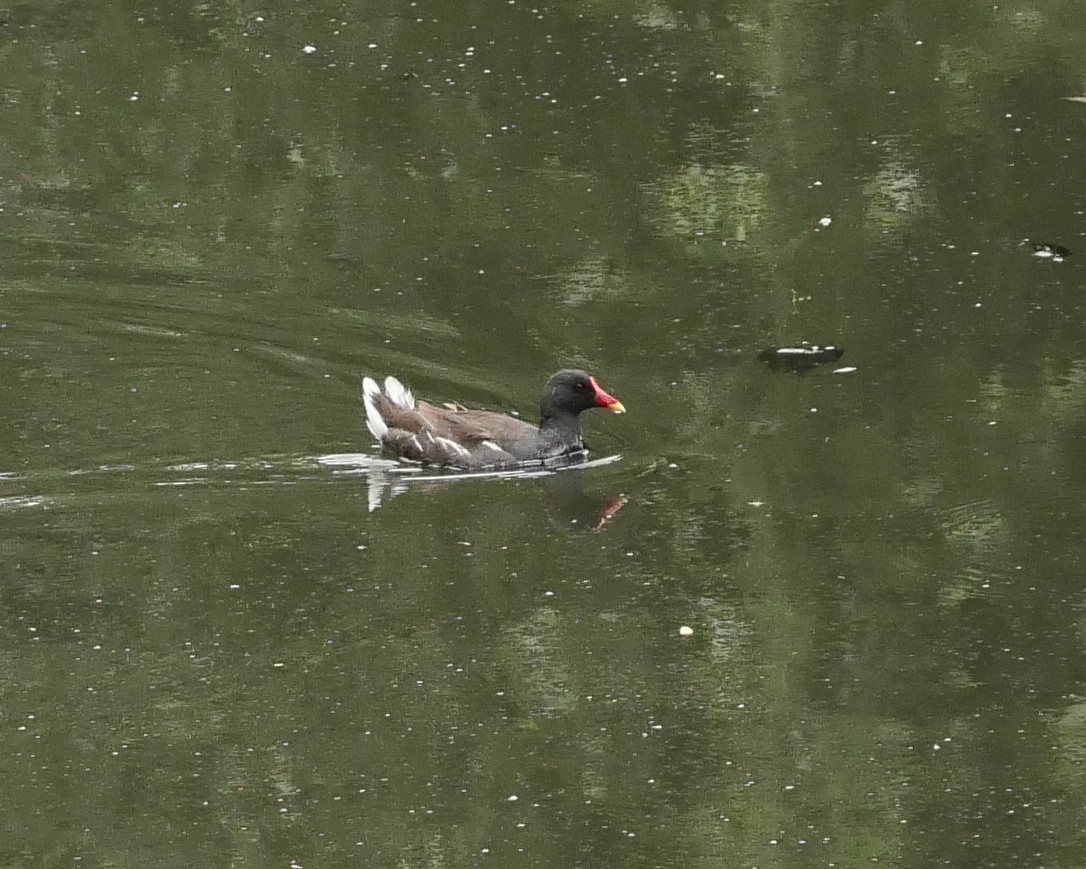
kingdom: Animalia
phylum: Chordata
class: Aves
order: Gruiformes
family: Rallidae
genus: Gallinula
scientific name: Gallinula chloropus
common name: Common moorhen
